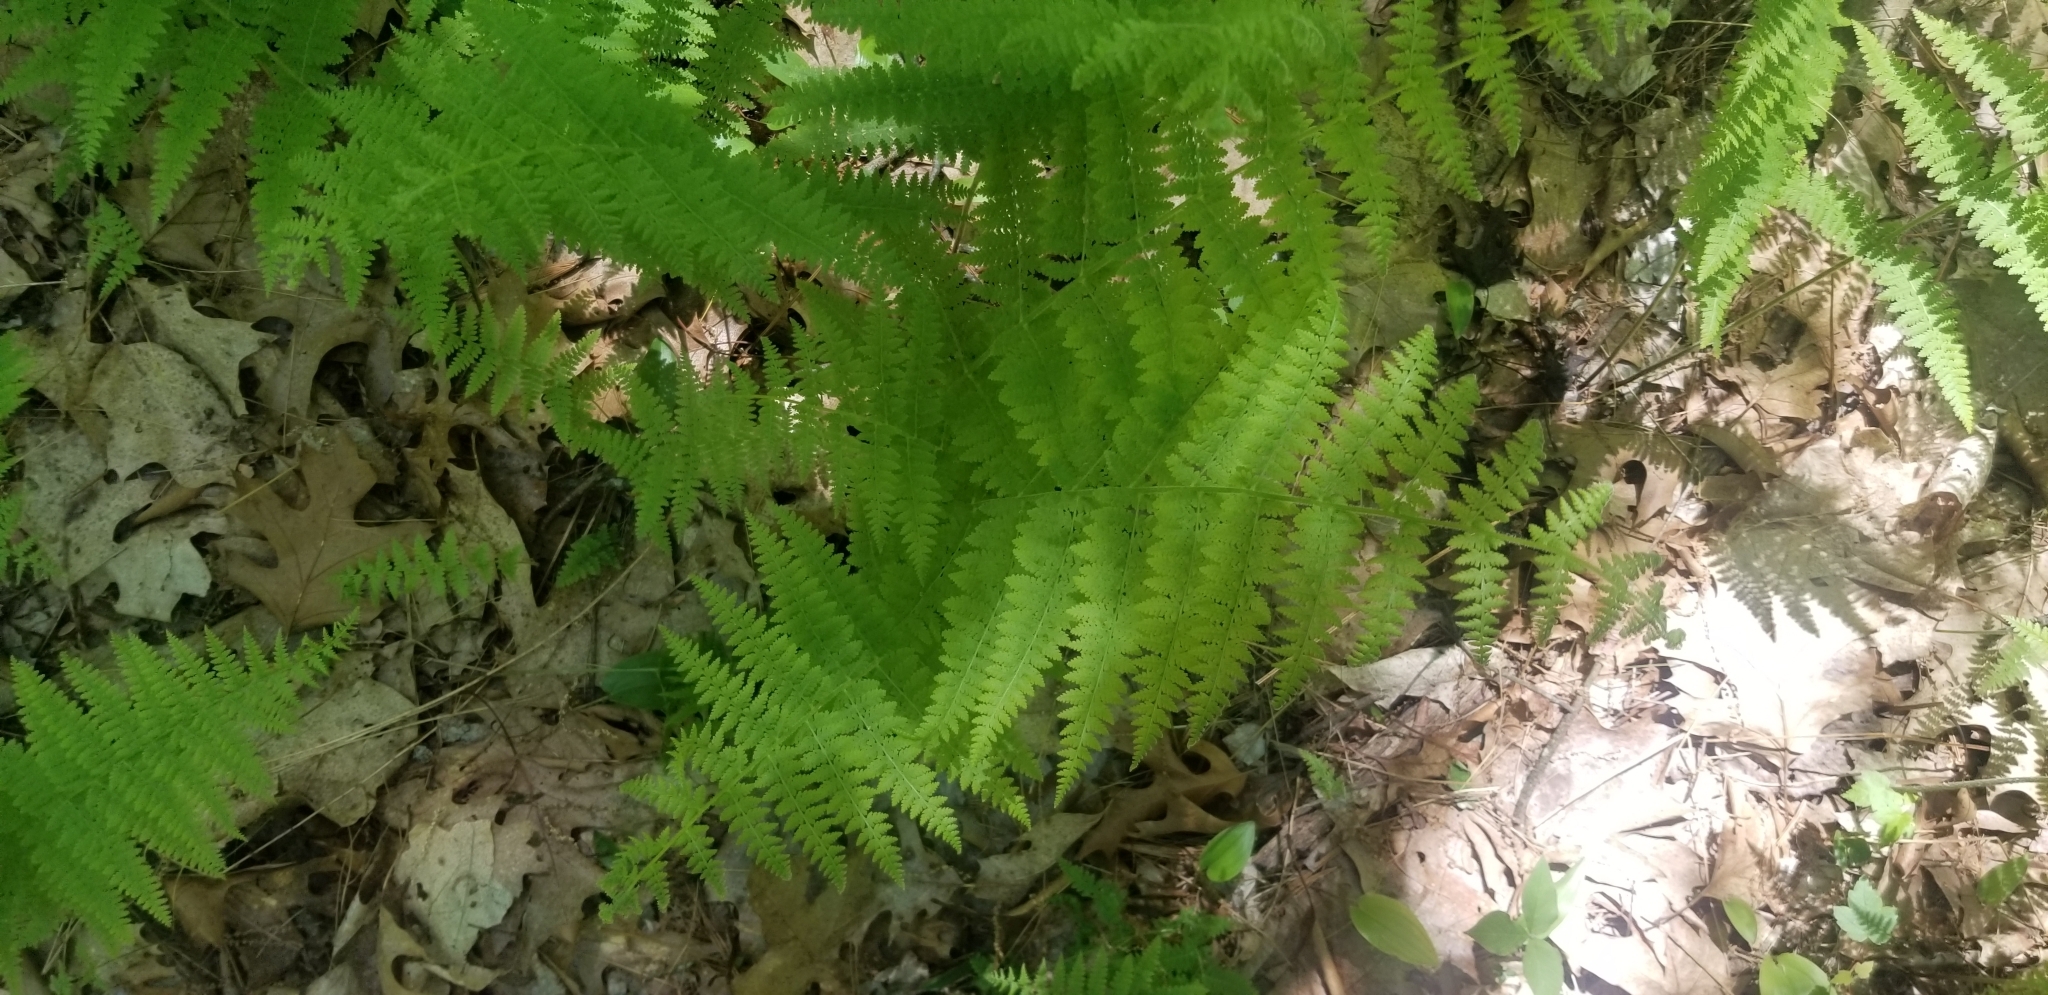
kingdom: Plantae
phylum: Tracheophyta
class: Polypodiopsida
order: Polypodiales
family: Dennstaedtiaceae
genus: Sitobolium
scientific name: Sitobolium punctilobum
